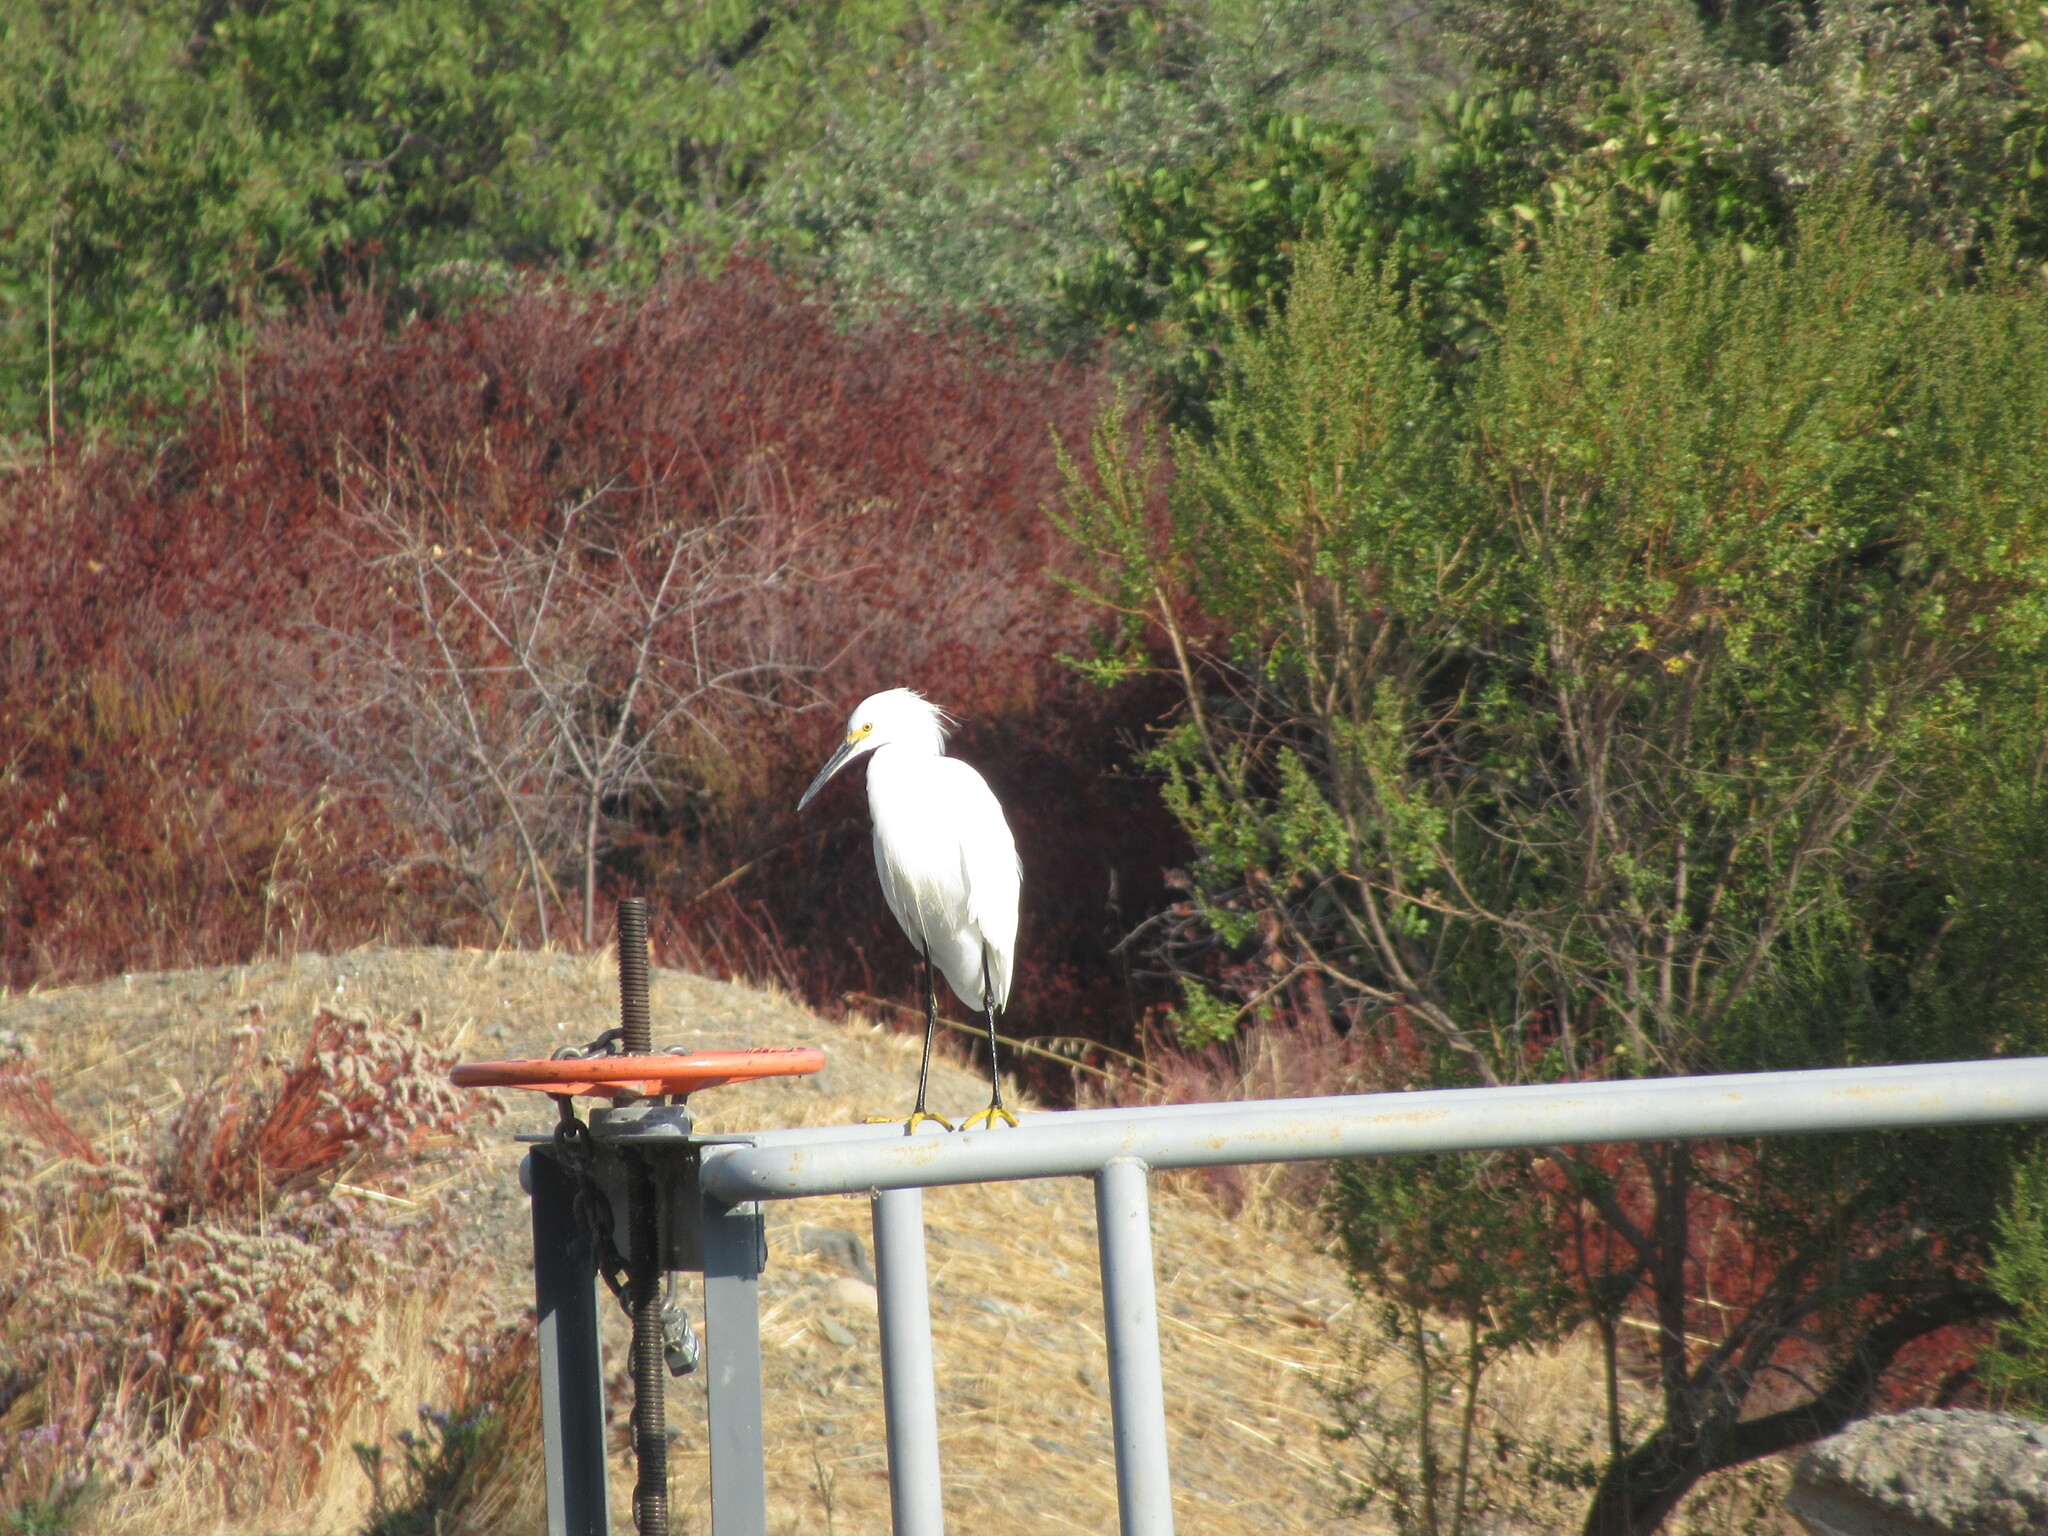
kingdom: Animalia
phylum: Chordata
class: Aves
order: Pelecaniformes
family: Ardeidae
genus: Egretta
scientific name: Egretta thula
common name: Snowy egret
